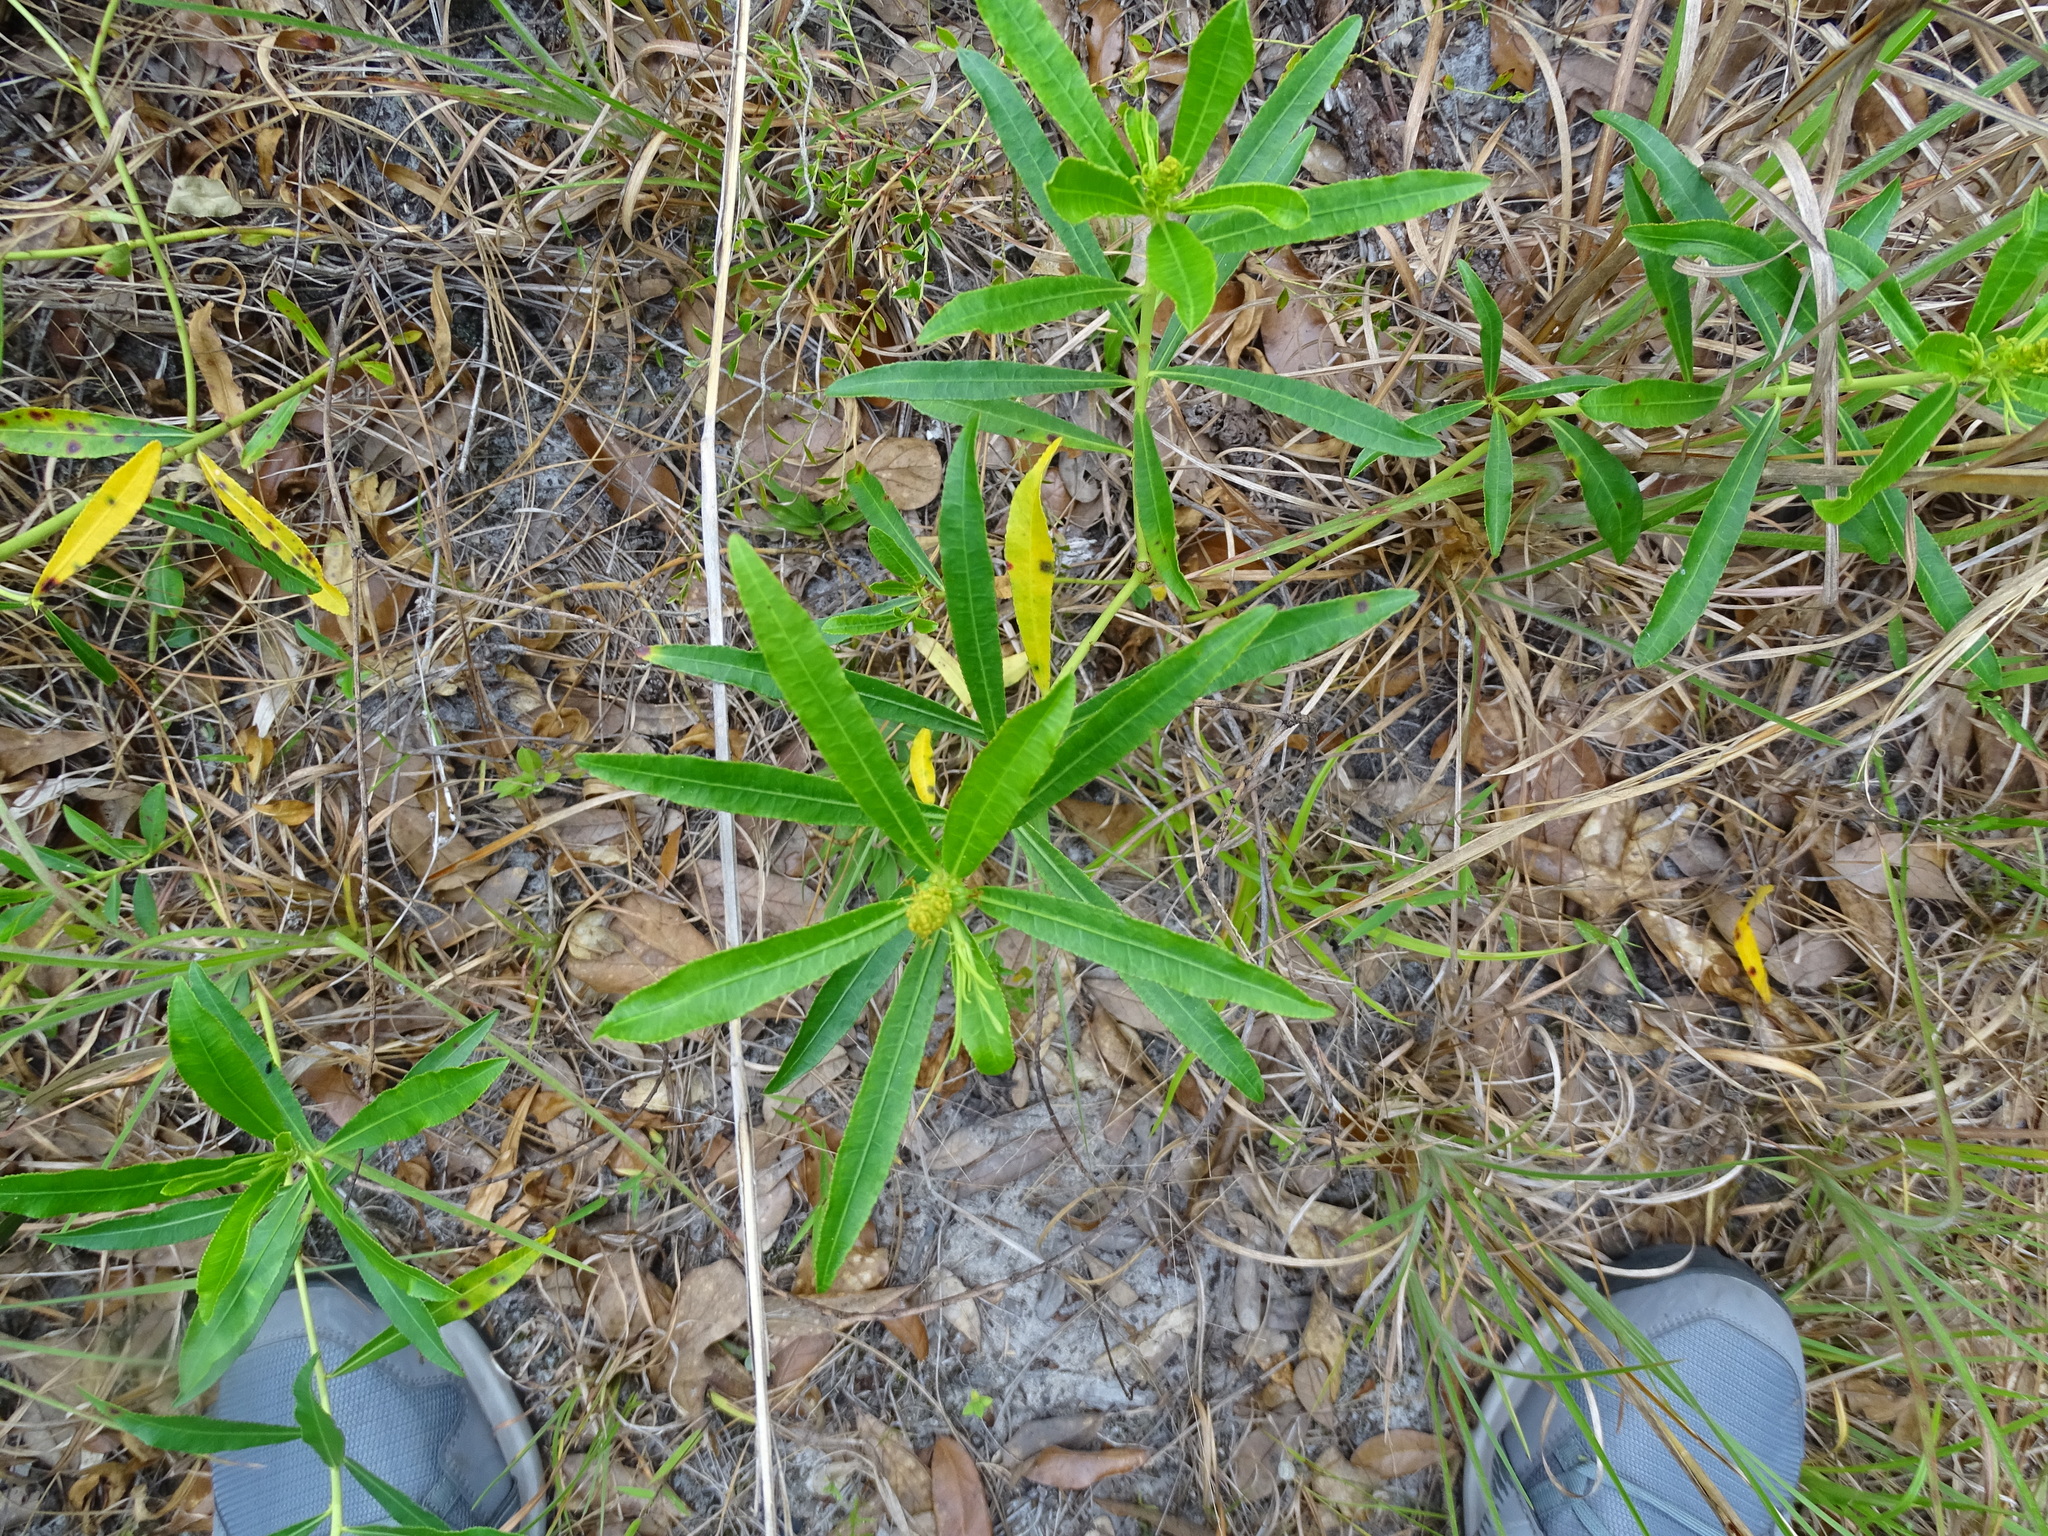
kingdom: Plantae
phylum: Tracheophyta
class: Magnoliopsida
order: Malpighiales
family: Euphorbiaceae
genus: Stillingia
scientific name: Stillingia sylvatica
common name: Queen's-delight
